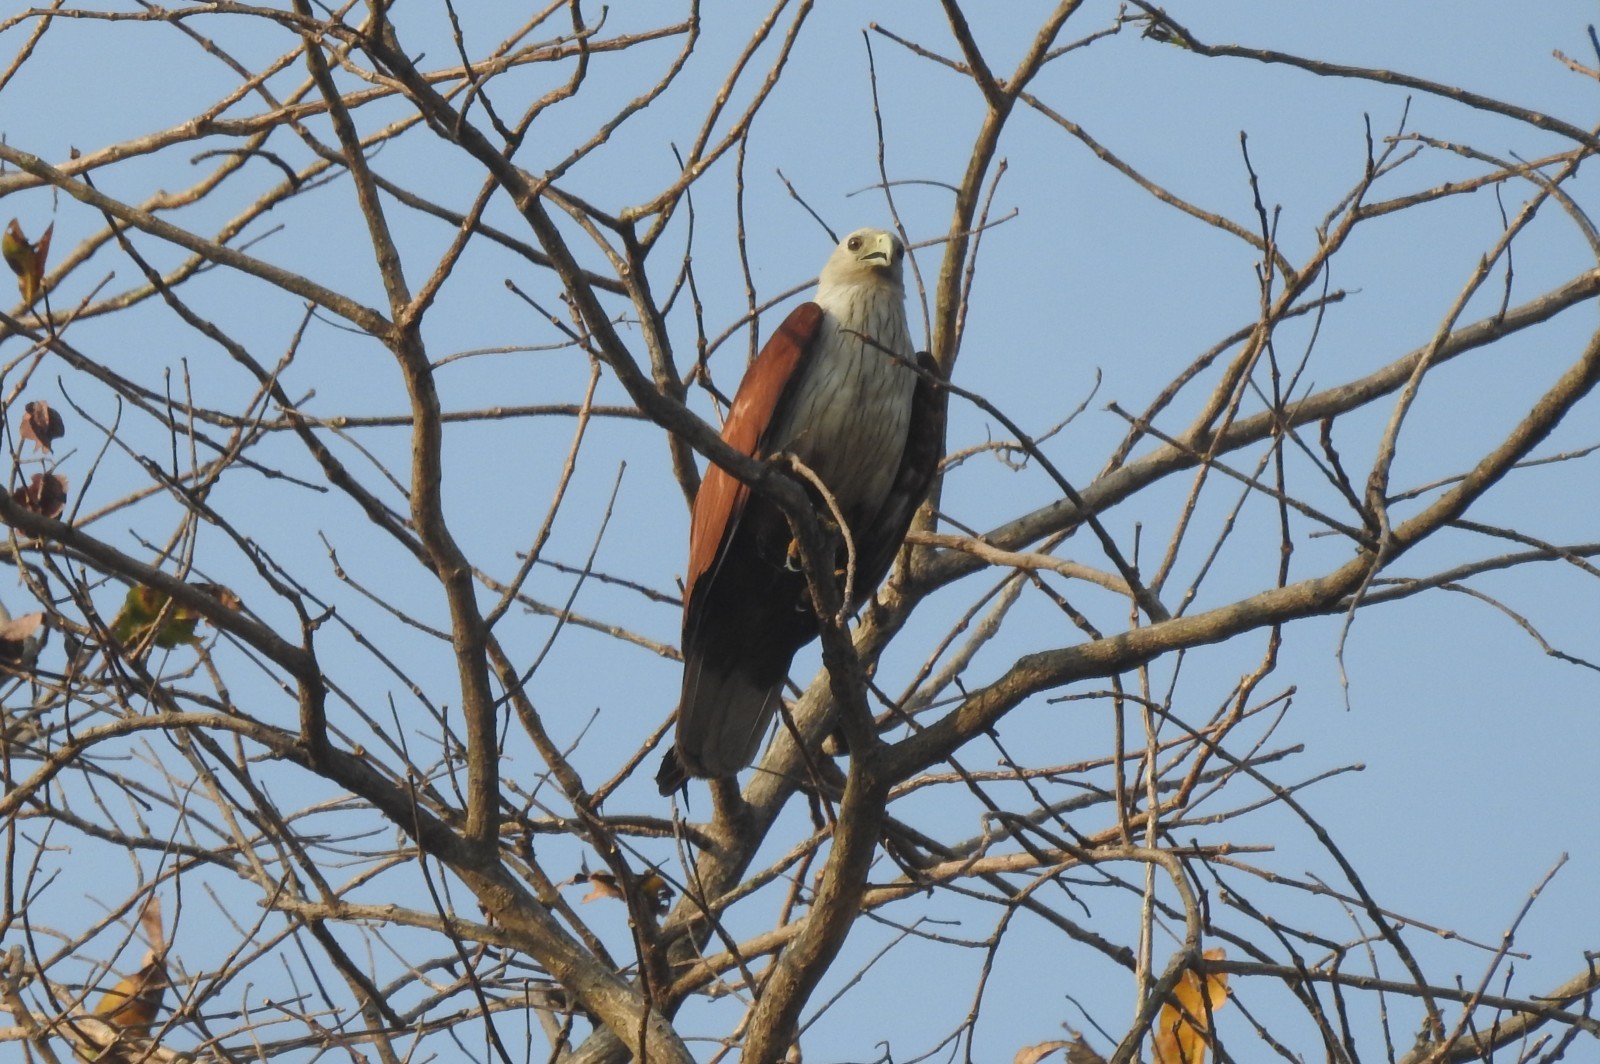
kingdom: Animalia
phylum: Chordata
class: Aves
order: Accipitriformes
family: Accipitridae
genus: Haliastur
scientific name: Haliastur indus
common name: Brahminy kite
